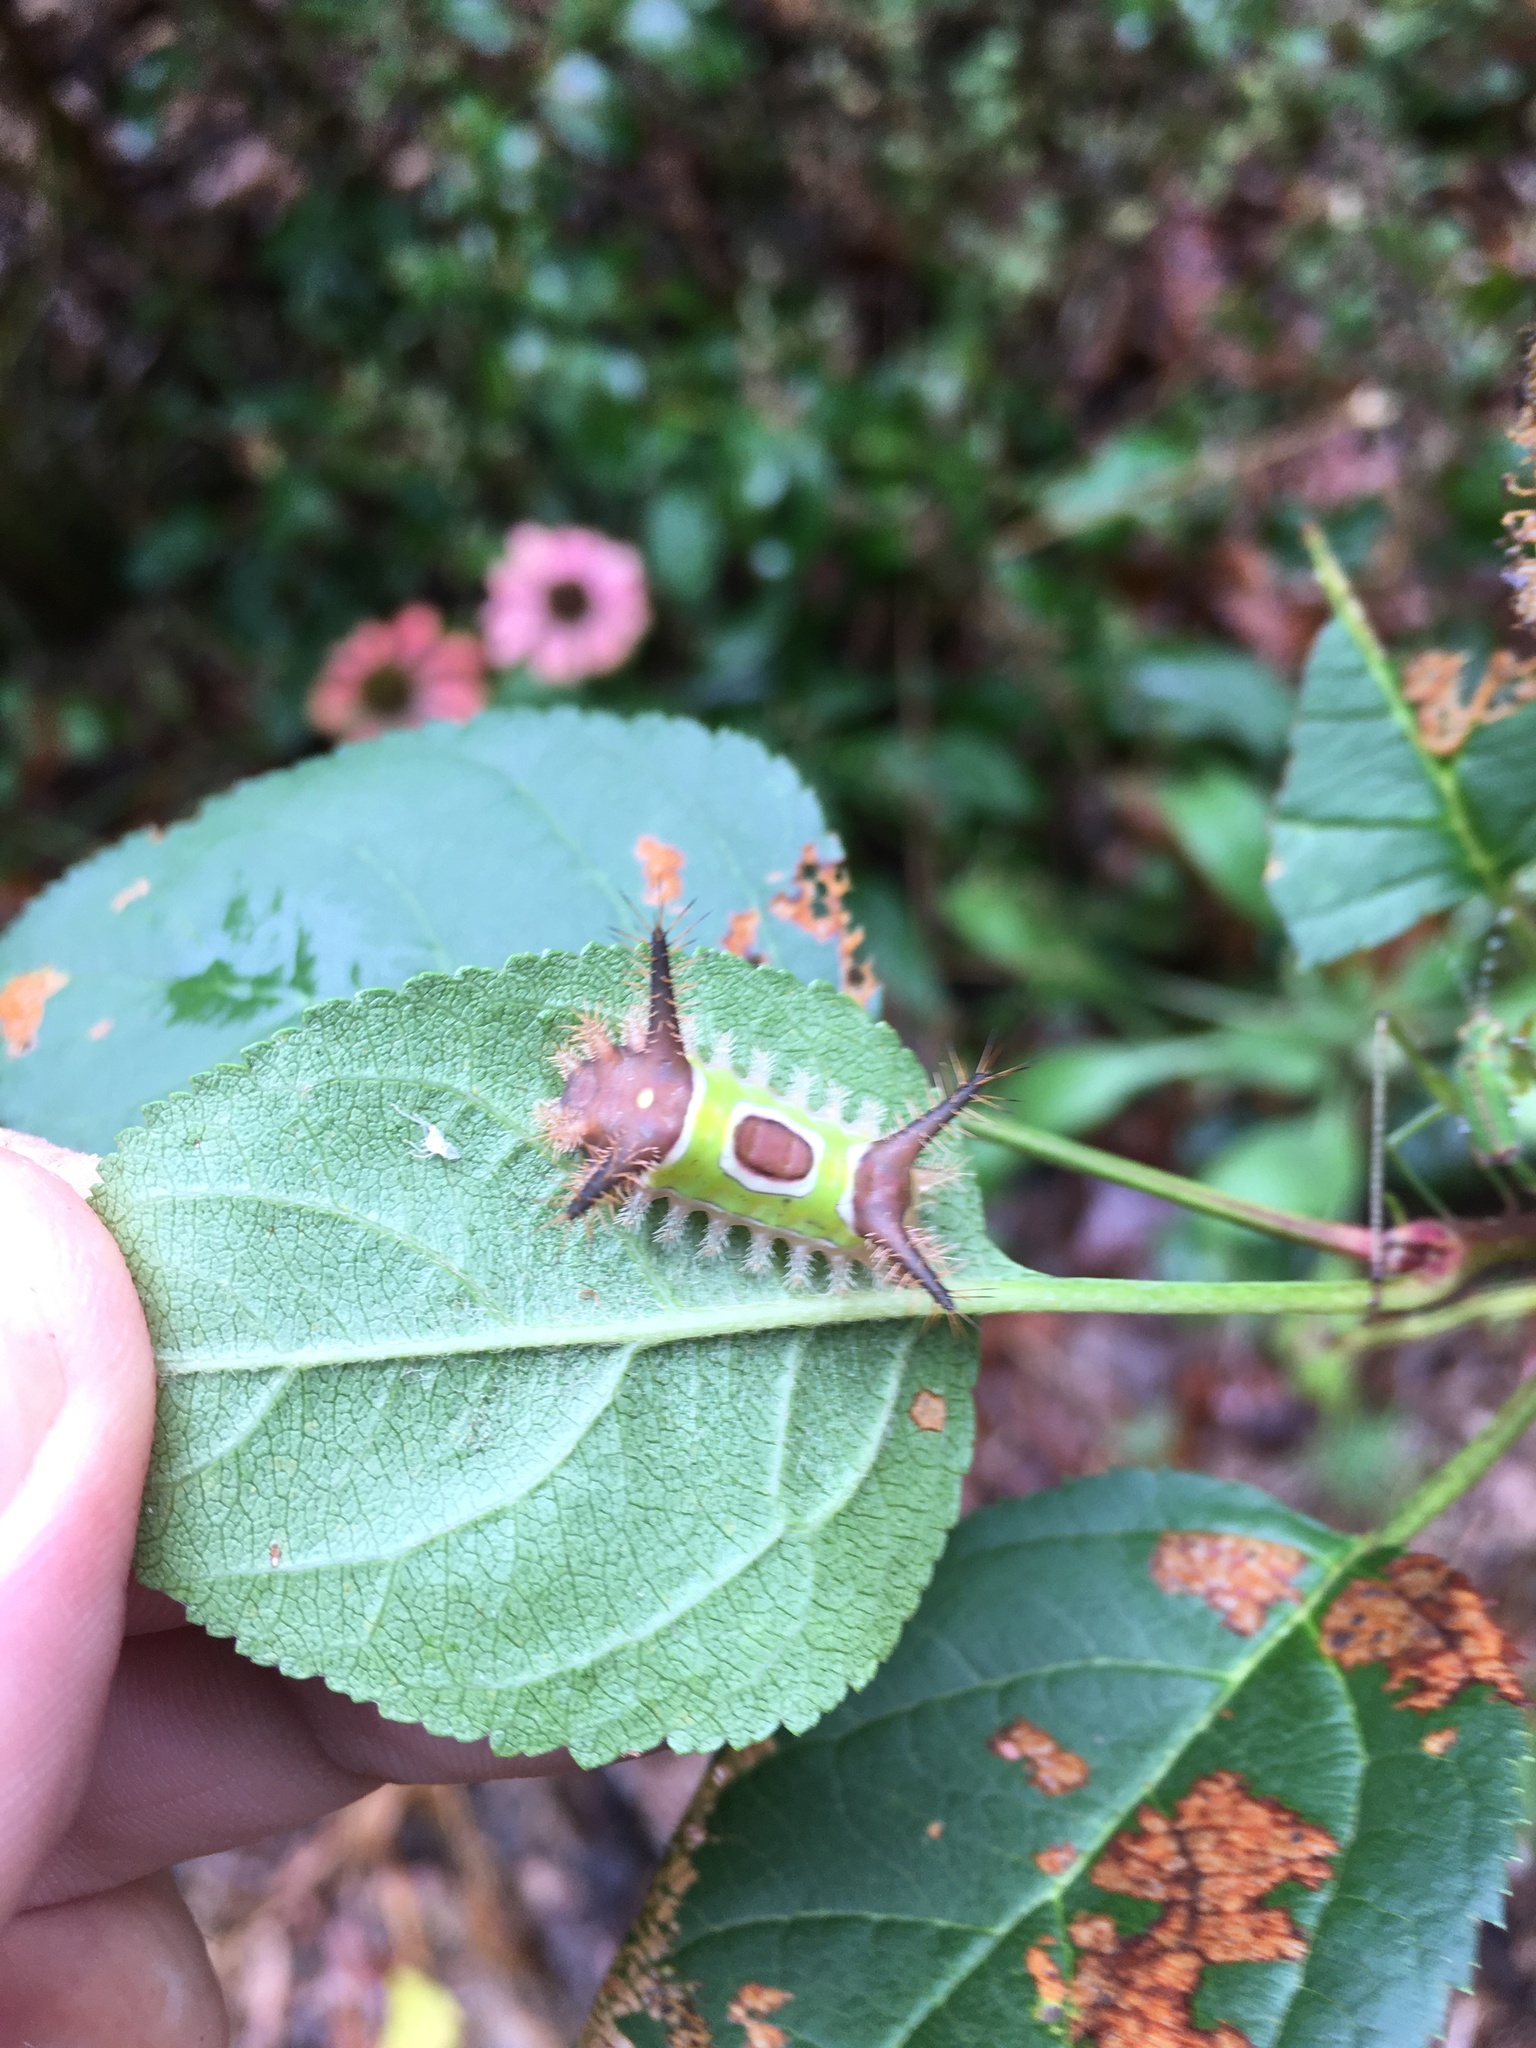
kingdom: Animalia
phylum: Arthropoda
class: Insecta
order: Lepidoptera
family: Limacodidae
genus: Acharia
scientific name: Acharia stimulea
